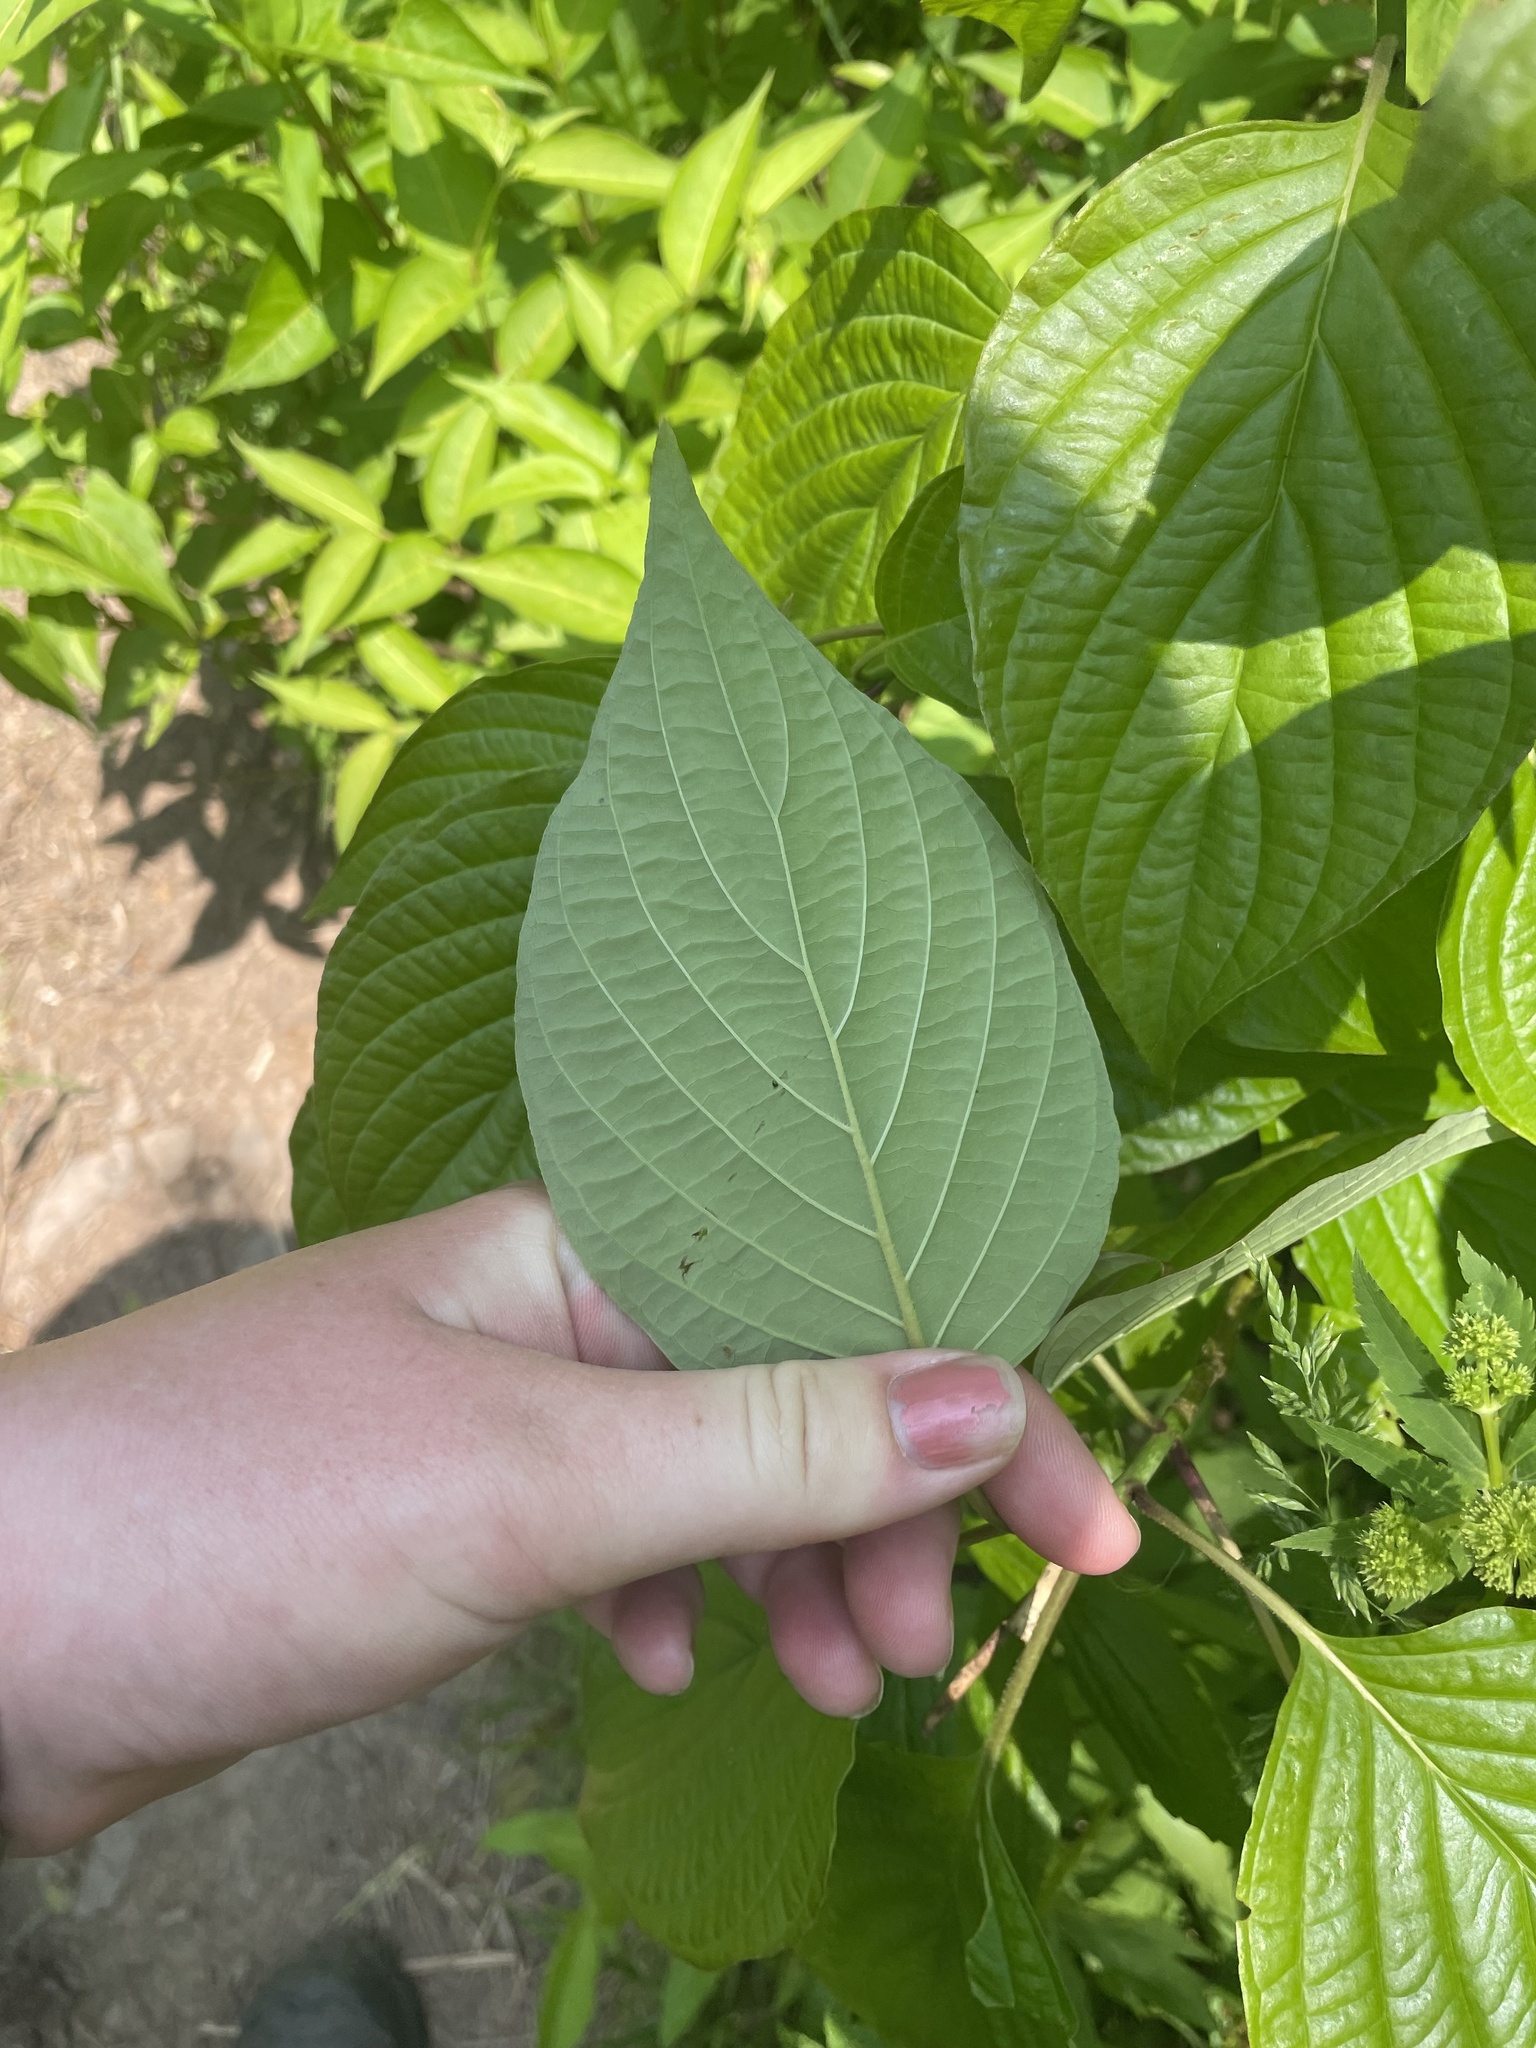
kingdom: Plantae
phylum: Tracheophyta
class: Magnoliopsida
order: Cornales
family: Cornaceae
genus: Cornus
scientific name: Cornus alternifolia
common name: Pagoda dogwood
